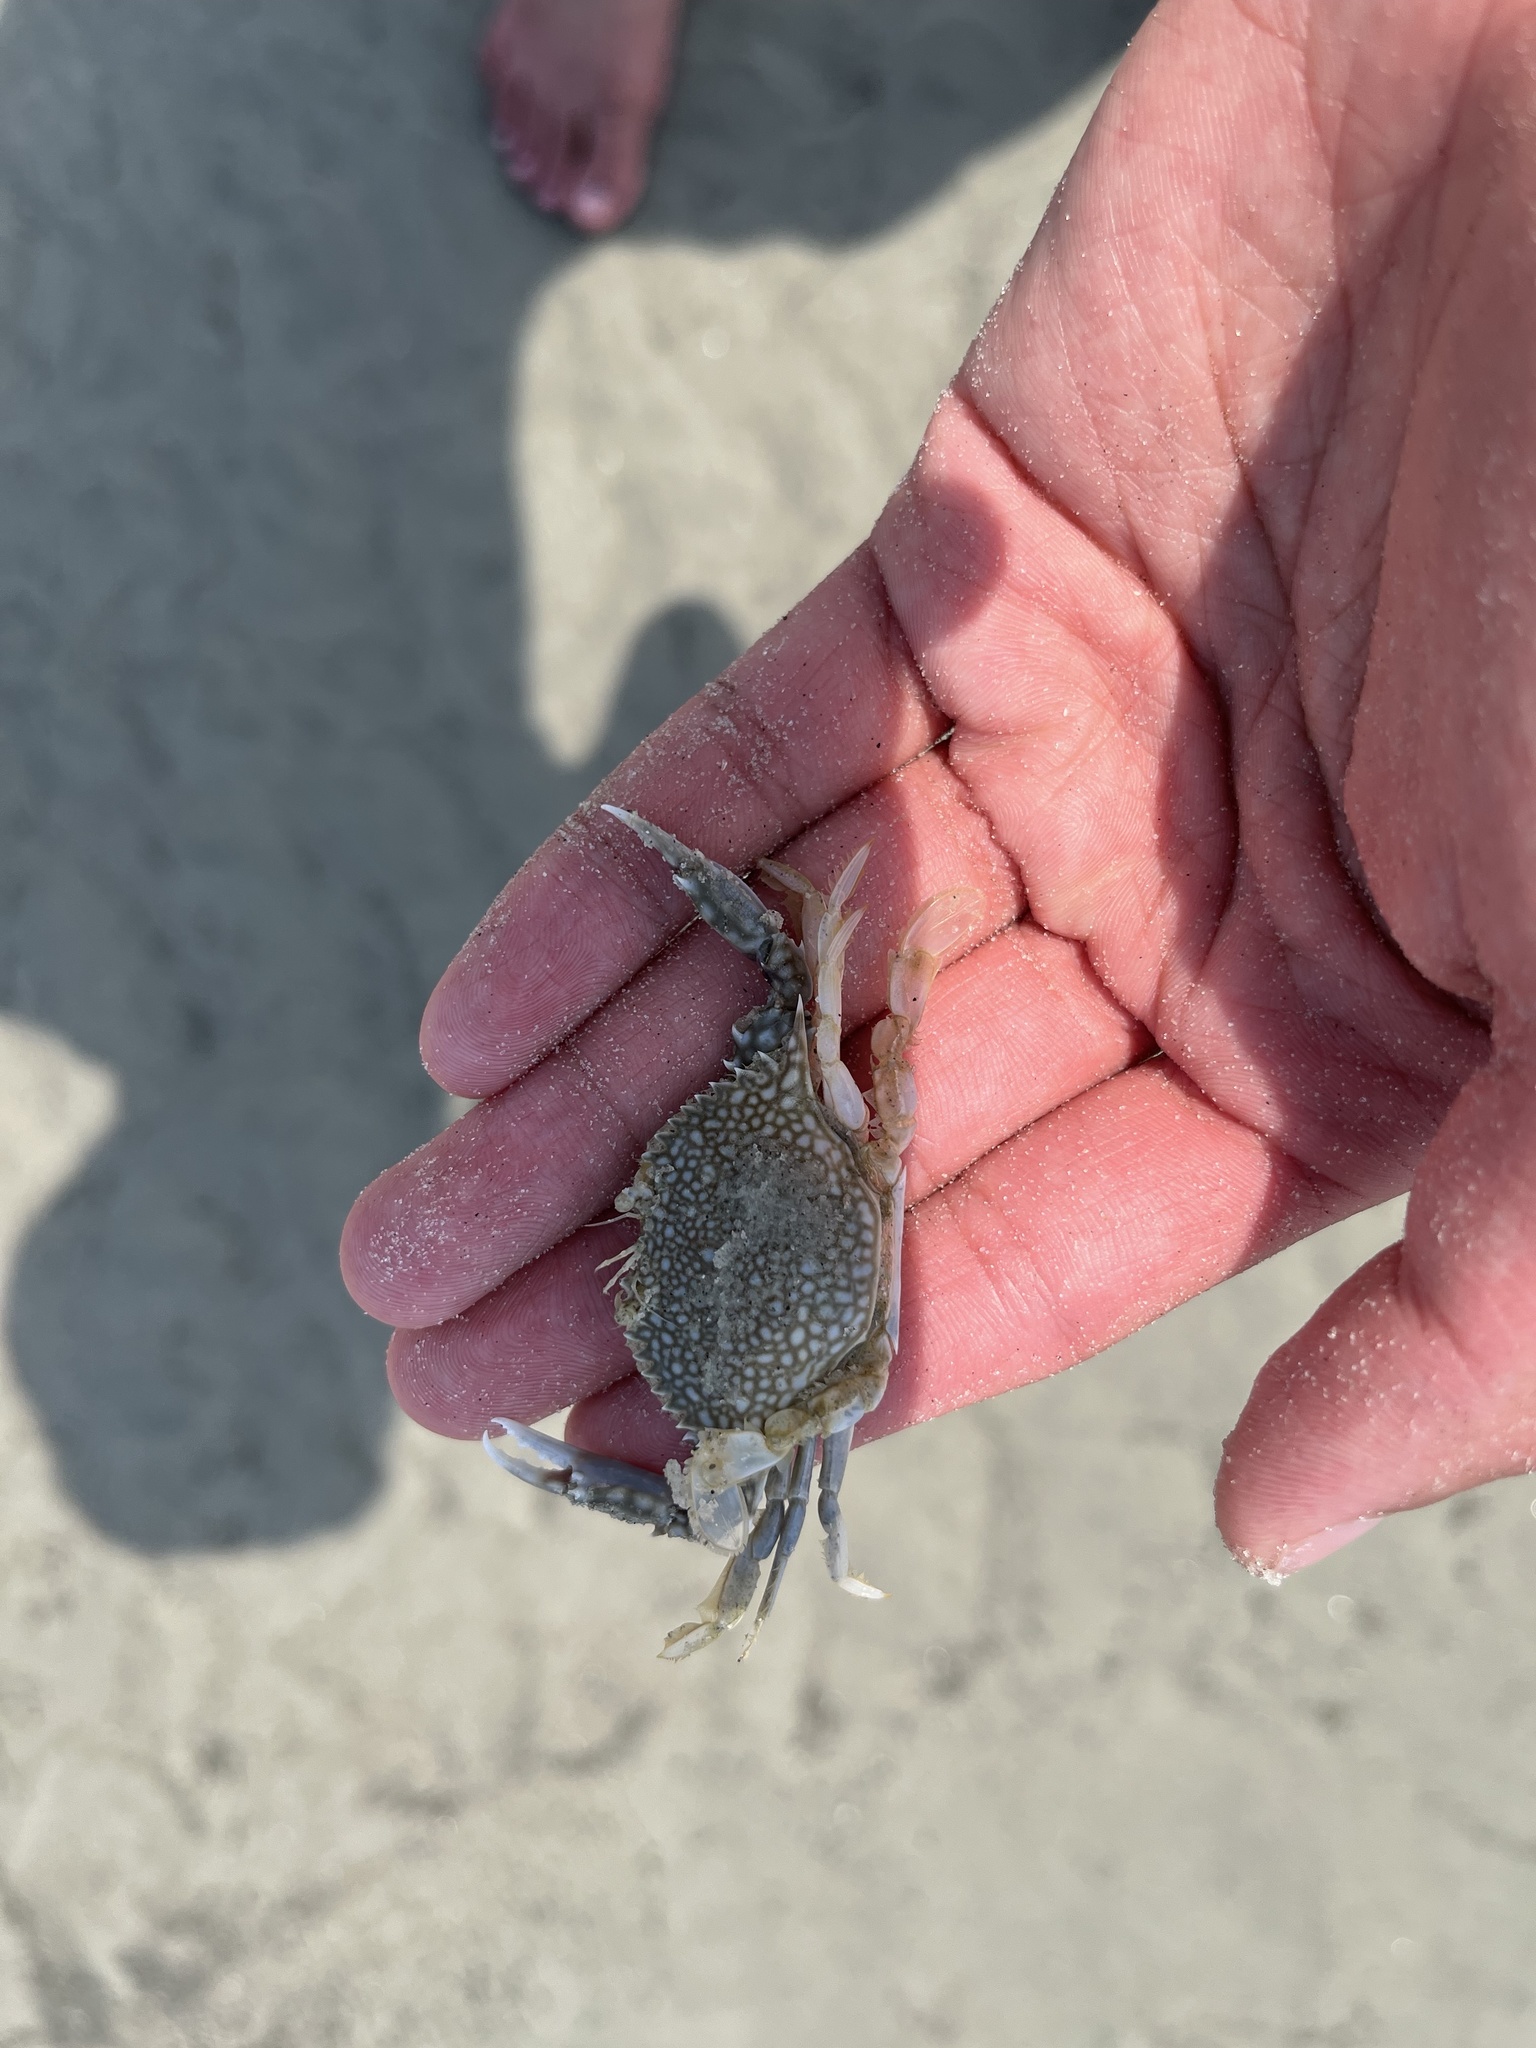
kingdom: Animalia
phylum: Arthropoda
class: Malacostraca
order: Decapoda
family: Portunidae
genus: Arenaeus
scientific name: Arenaeus cribrarius
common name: Speckled crab
